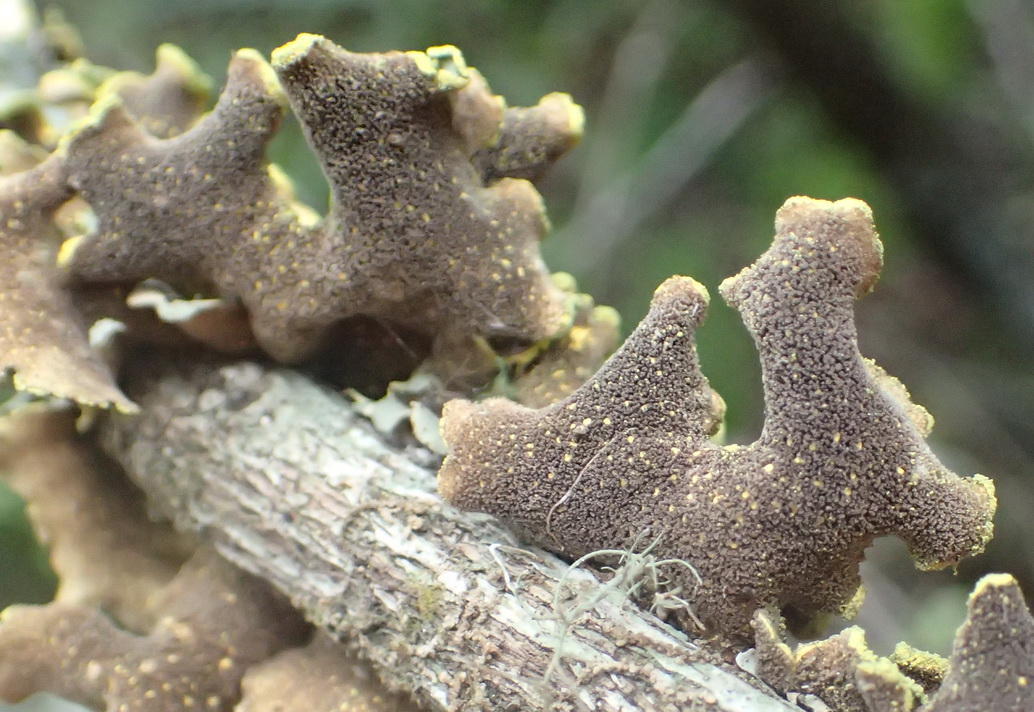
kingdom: Fungi
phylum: Ascomycota
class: Lecanoromycetes
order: Peltigerales
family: Lobariaceae
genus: Pseudocyphellaria
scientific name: Pseudocyphellaria aurata
